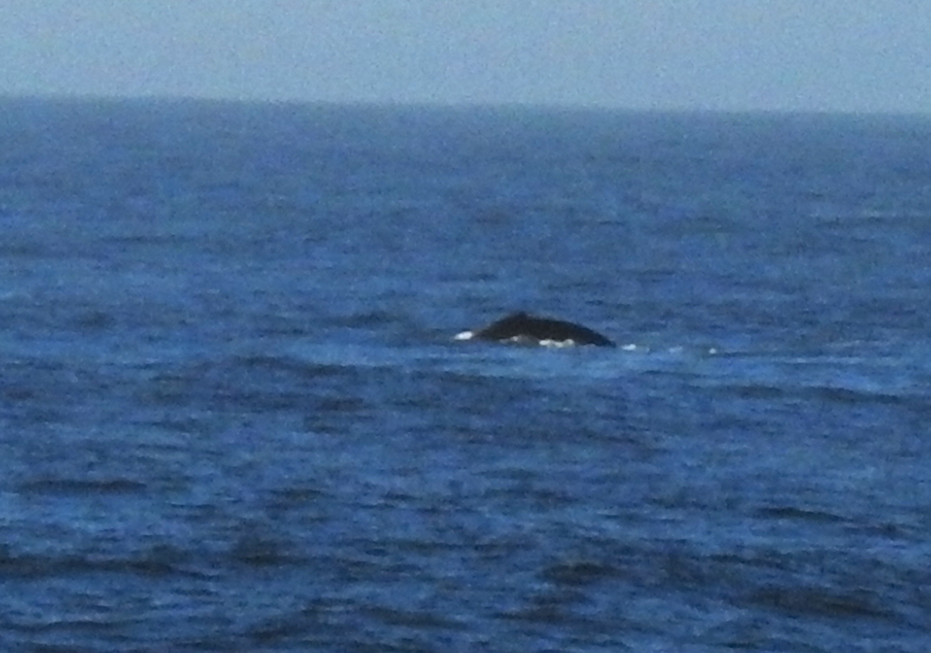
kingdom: Animalia
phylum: Chordata
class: Mammalia
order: Cetacea
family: Balaenopteridae
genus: Megaptera
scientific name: Megaptera novaeangliae
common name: Humpback whale
